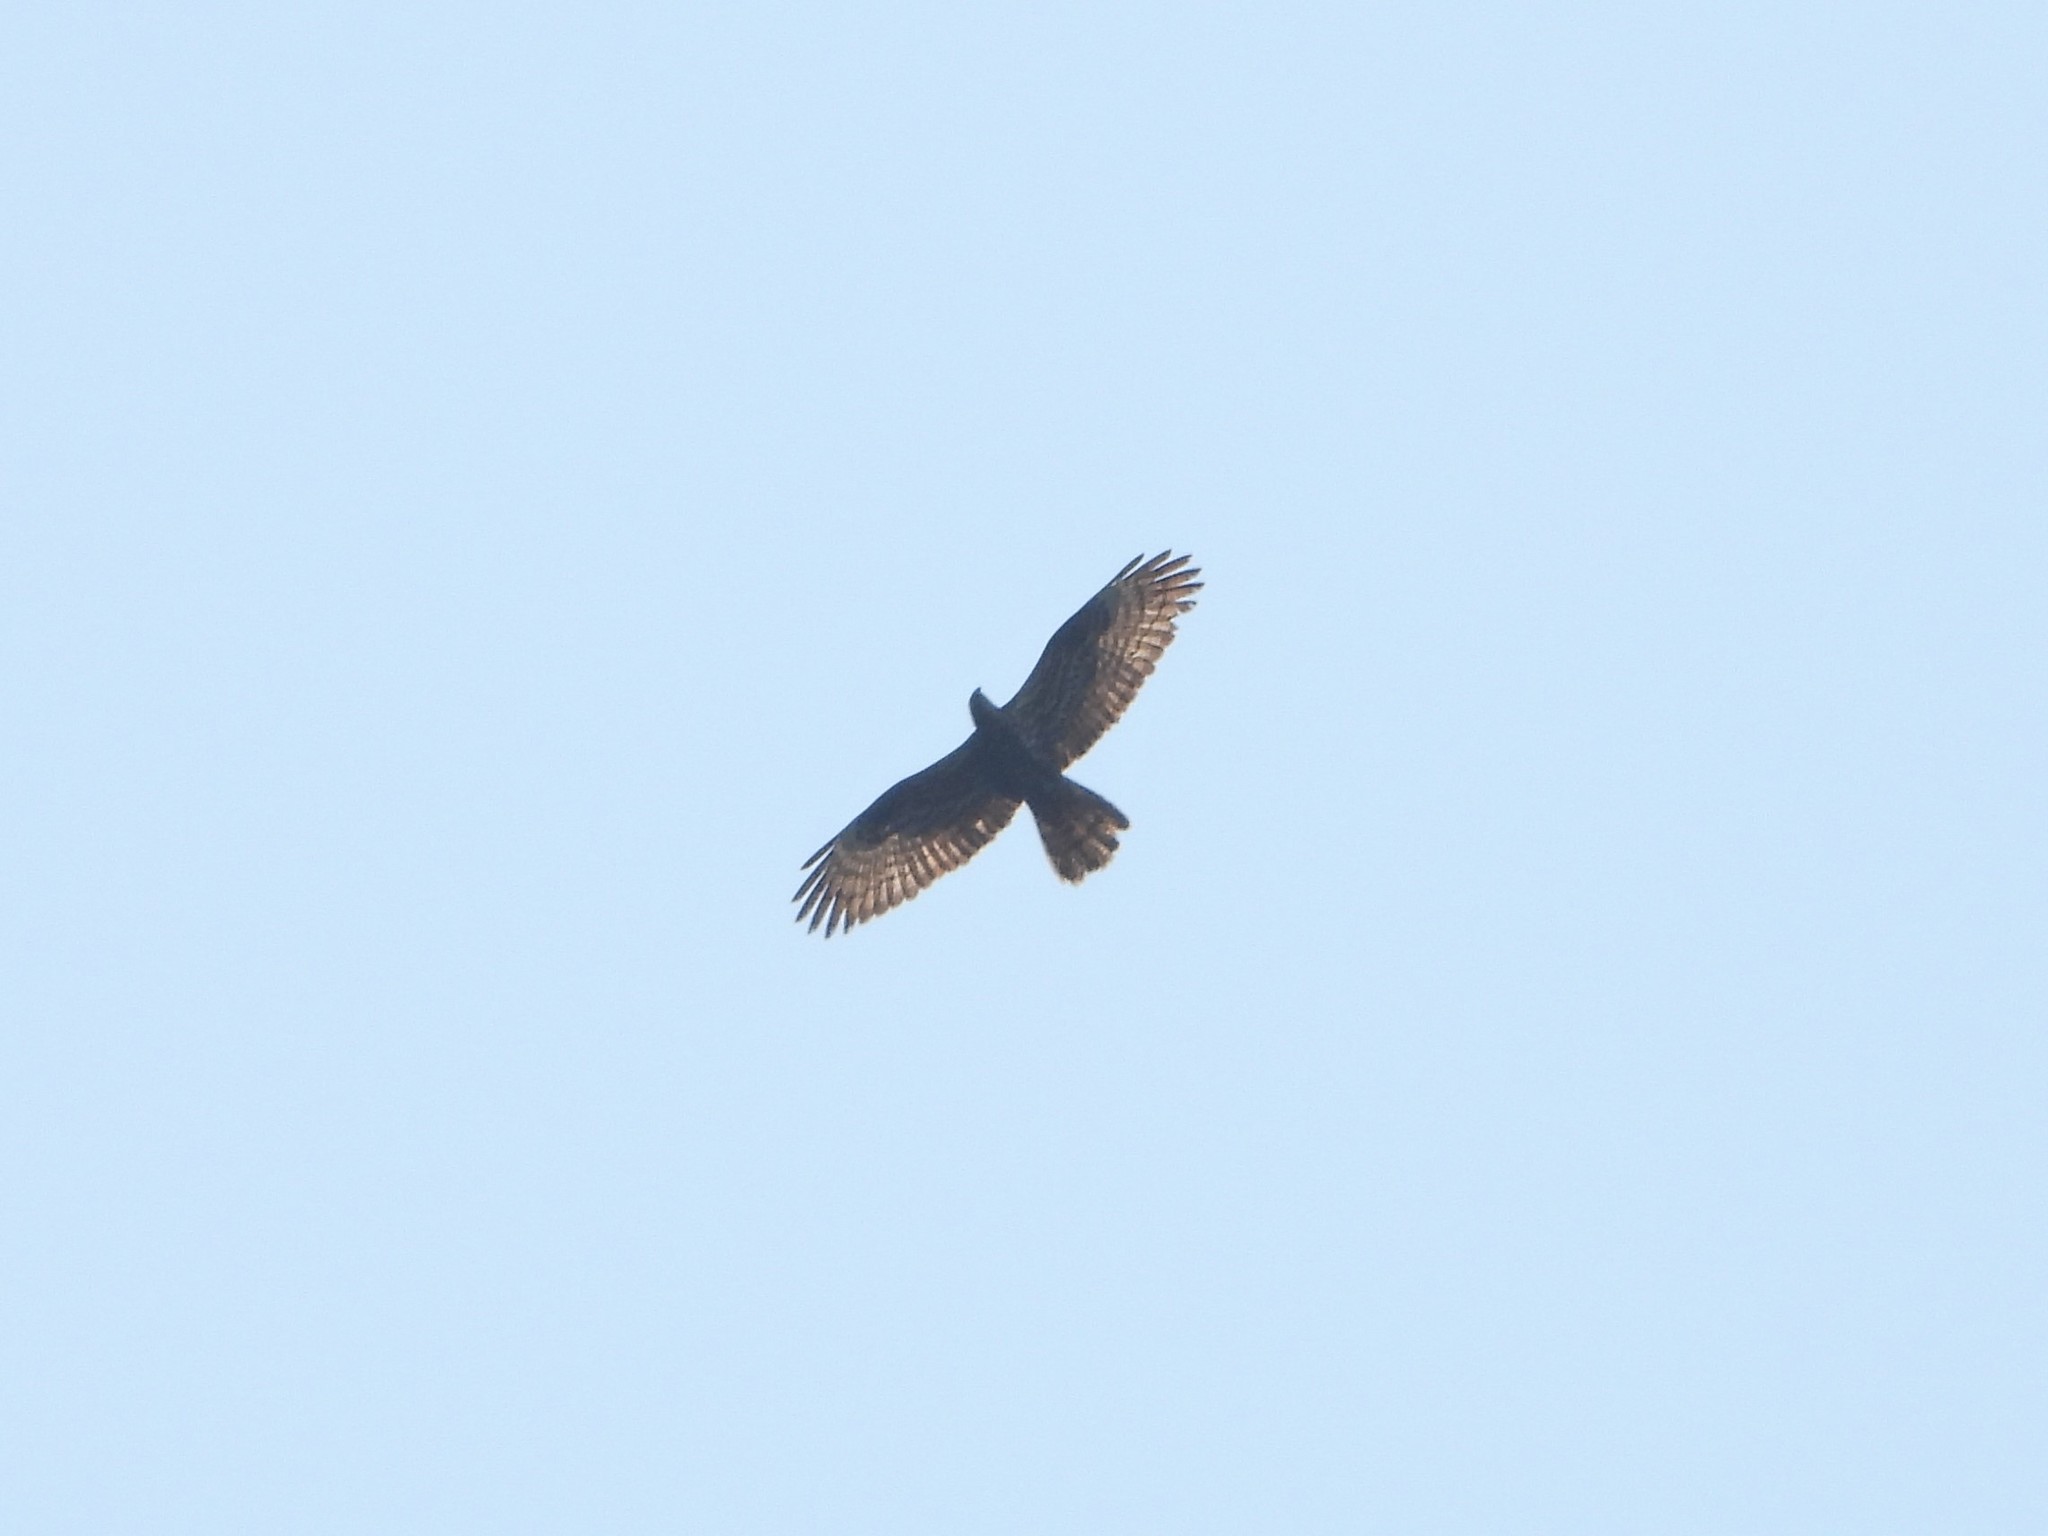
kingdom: Animalia
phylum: Chordata
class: Aves
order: Accipitriformes
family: Accipitridae
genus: Pernis
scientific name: Pernis apivorus
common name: European honey buzzard
